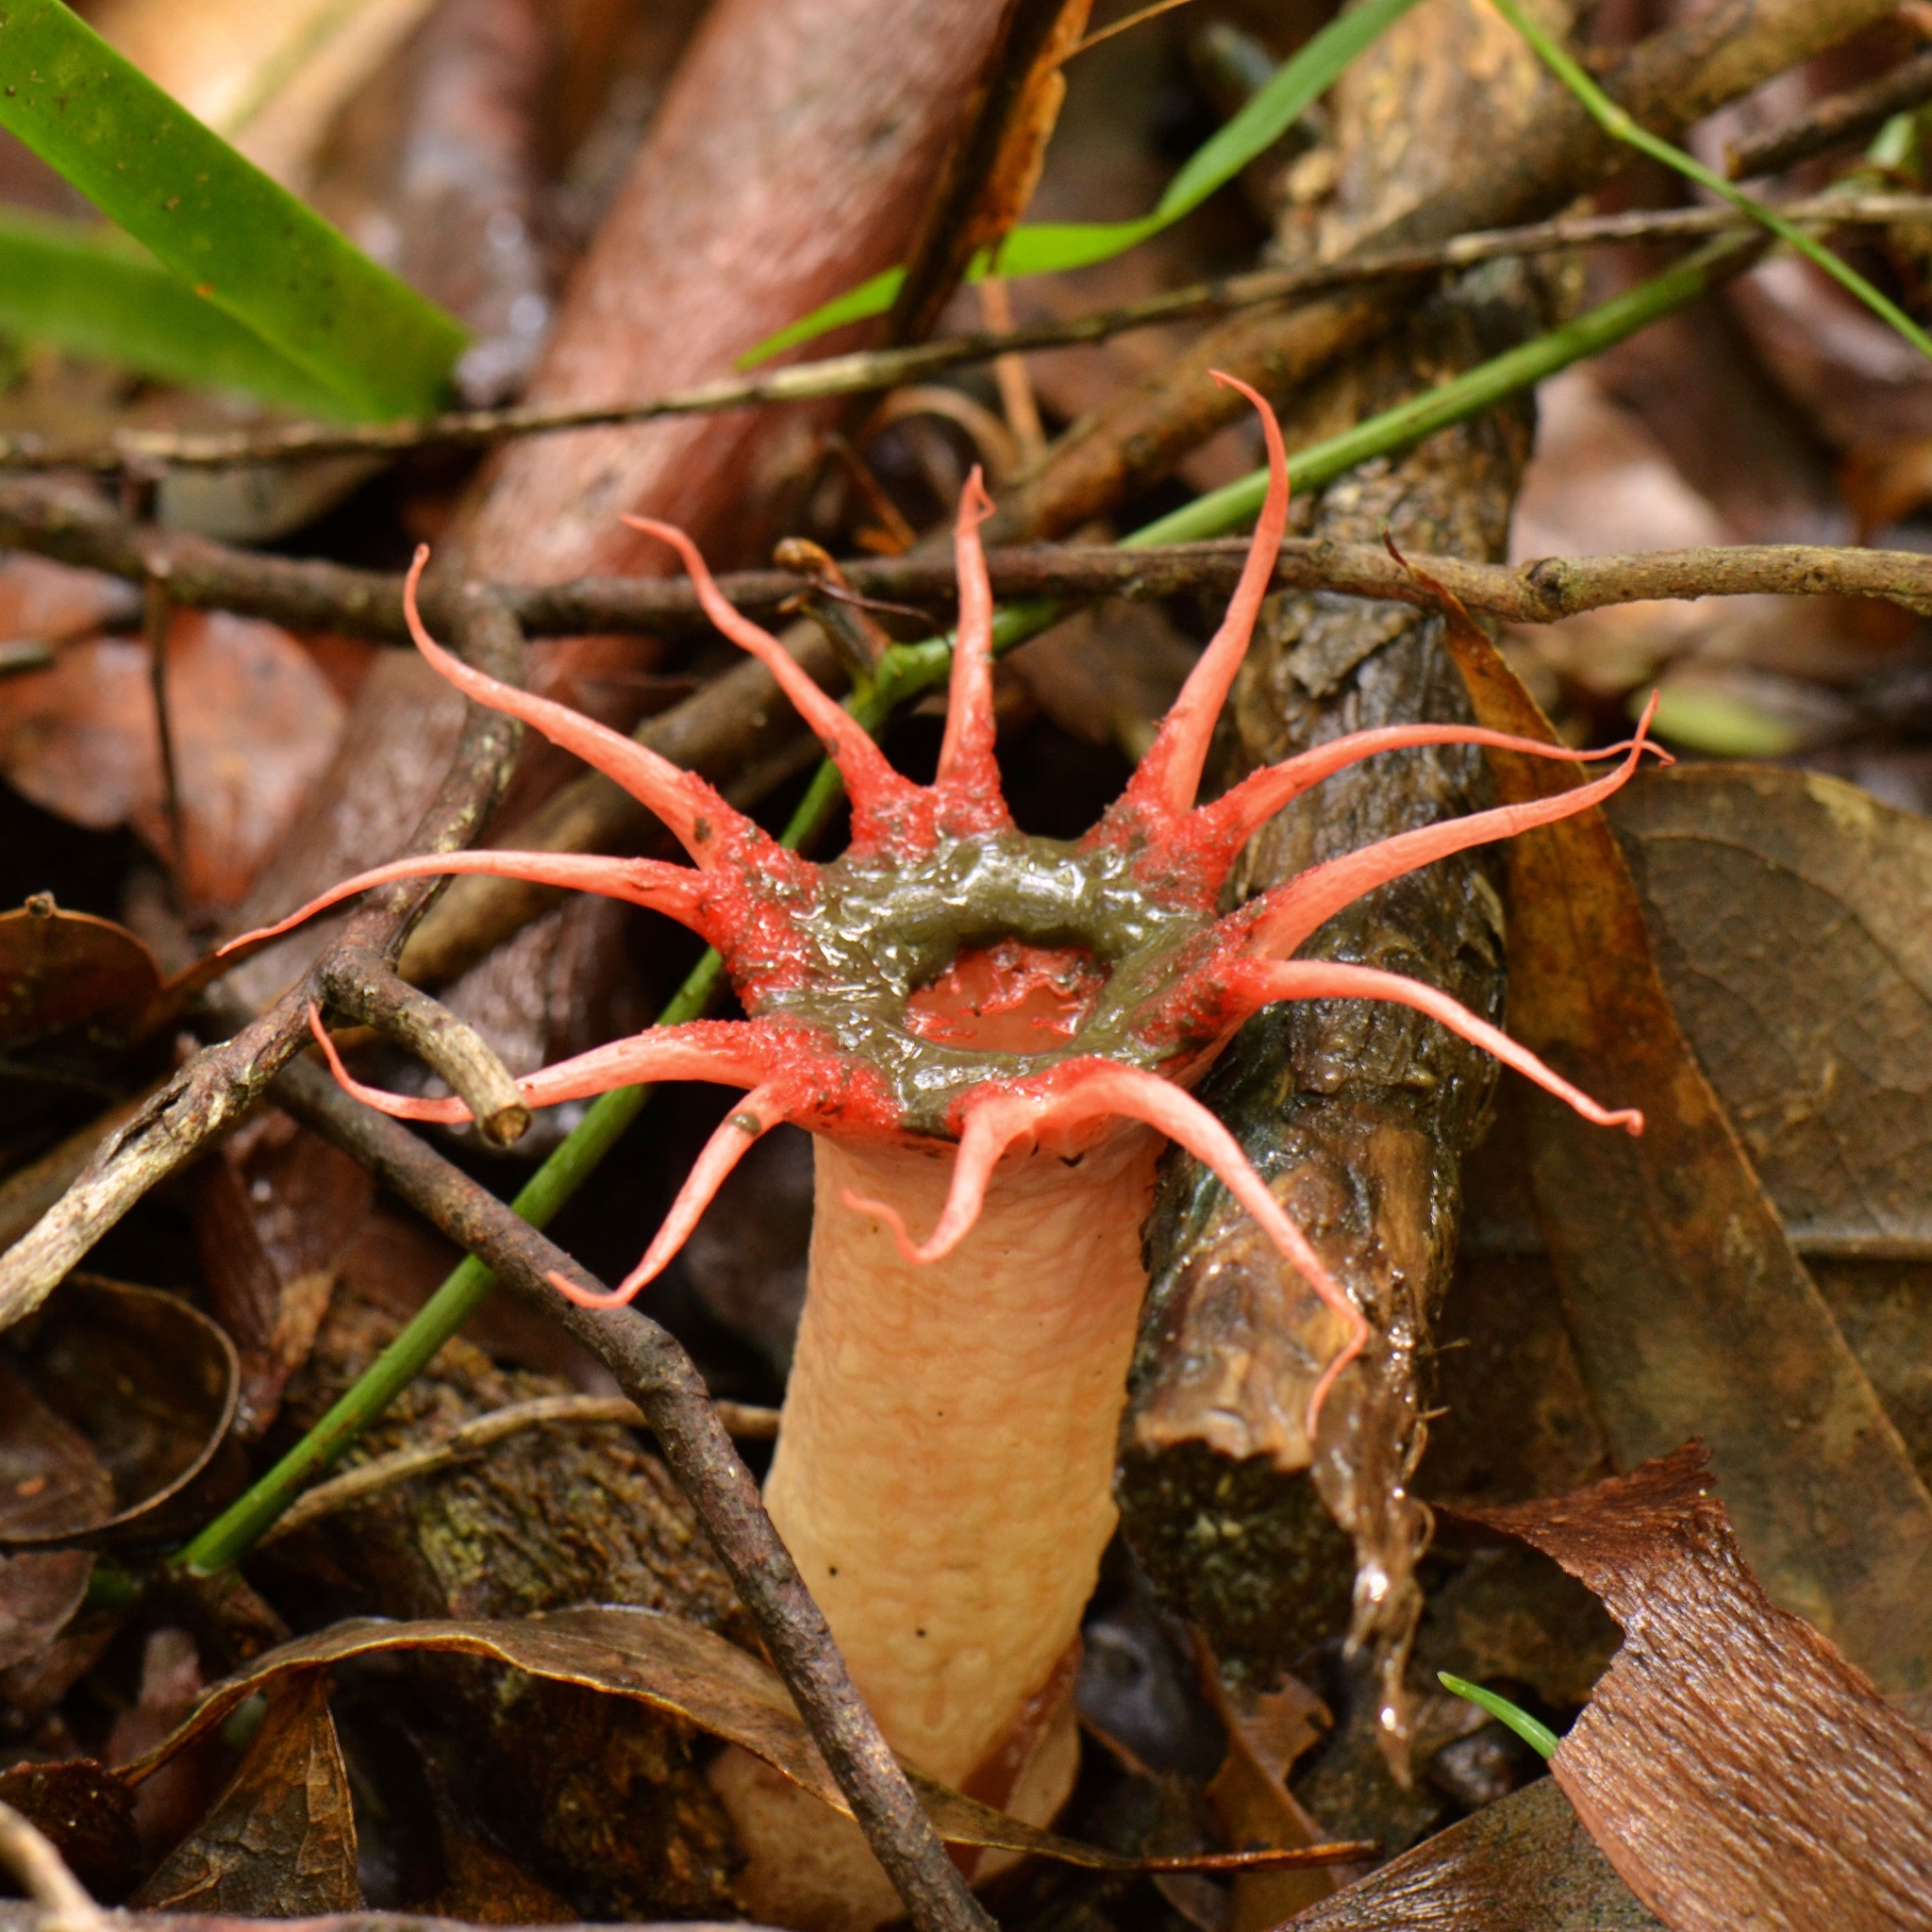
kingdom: Fungi
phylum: Basidiomycota
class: Agaricomycetes
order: Phallales
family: Phallaceae
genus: Aseroe
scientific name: Aseroe rubra
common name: Starfish fungus
